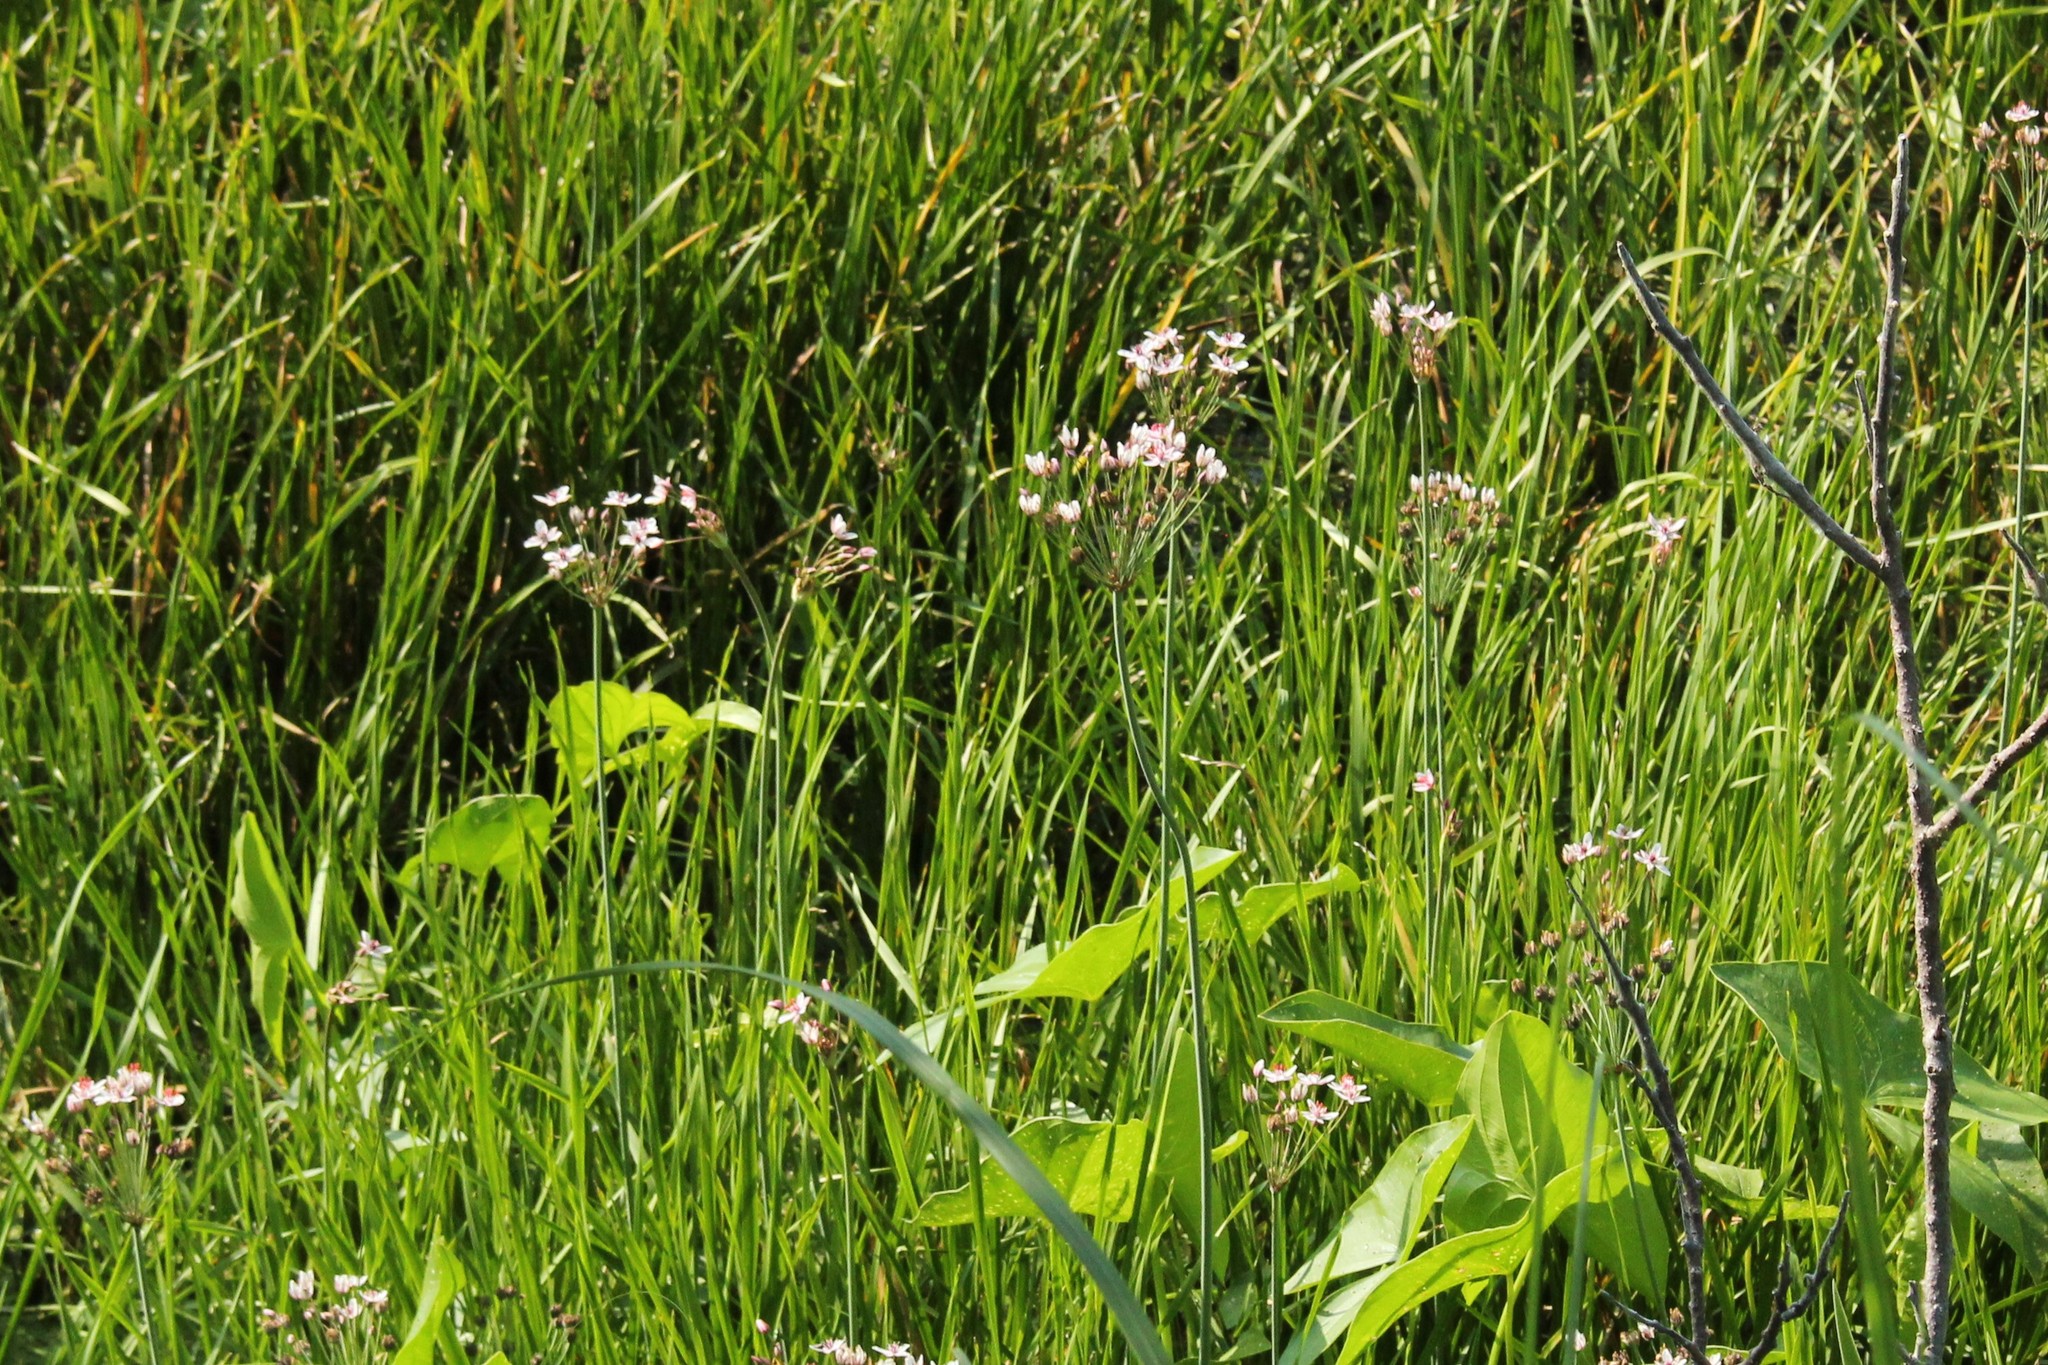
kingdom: Plantae
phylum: Tracheophyta
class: Liliopsida
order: Alismatales
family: Butomaceae
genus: Butomus
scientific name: Butomus umbellatus
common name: Flowering-rush
